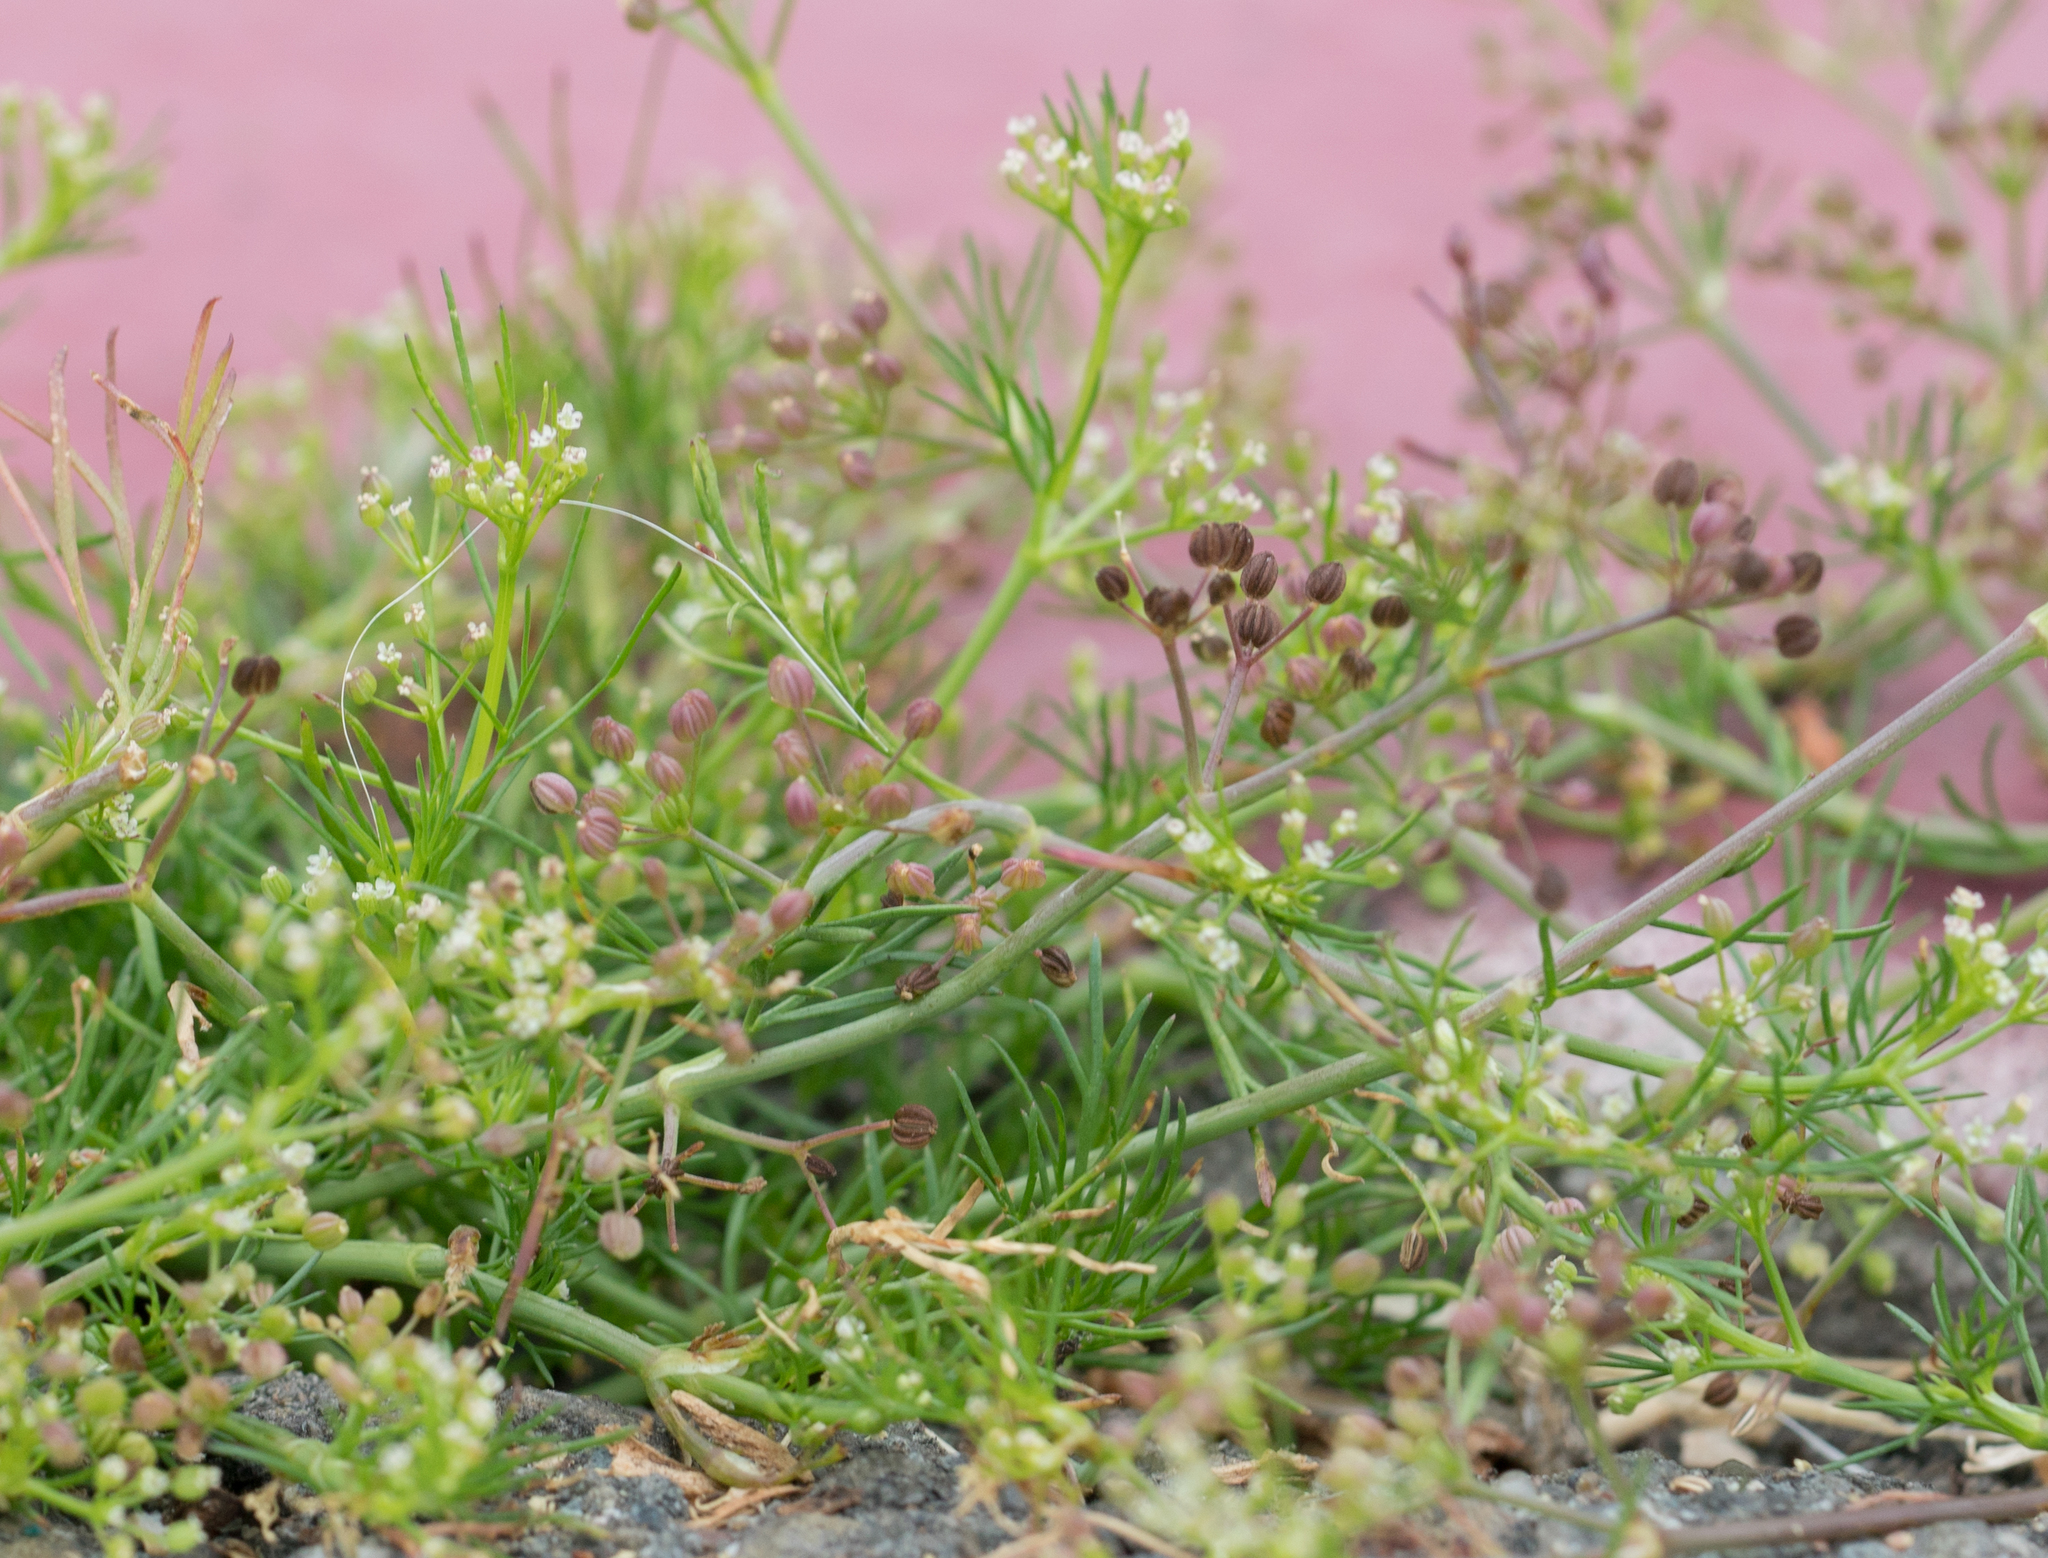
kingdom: Plantae
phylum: Tracheophyta
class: Magnoliopsida
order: Apiales
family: Apiaceae
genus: Cyclospermum
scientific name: Cyclospermum leptophyllum
